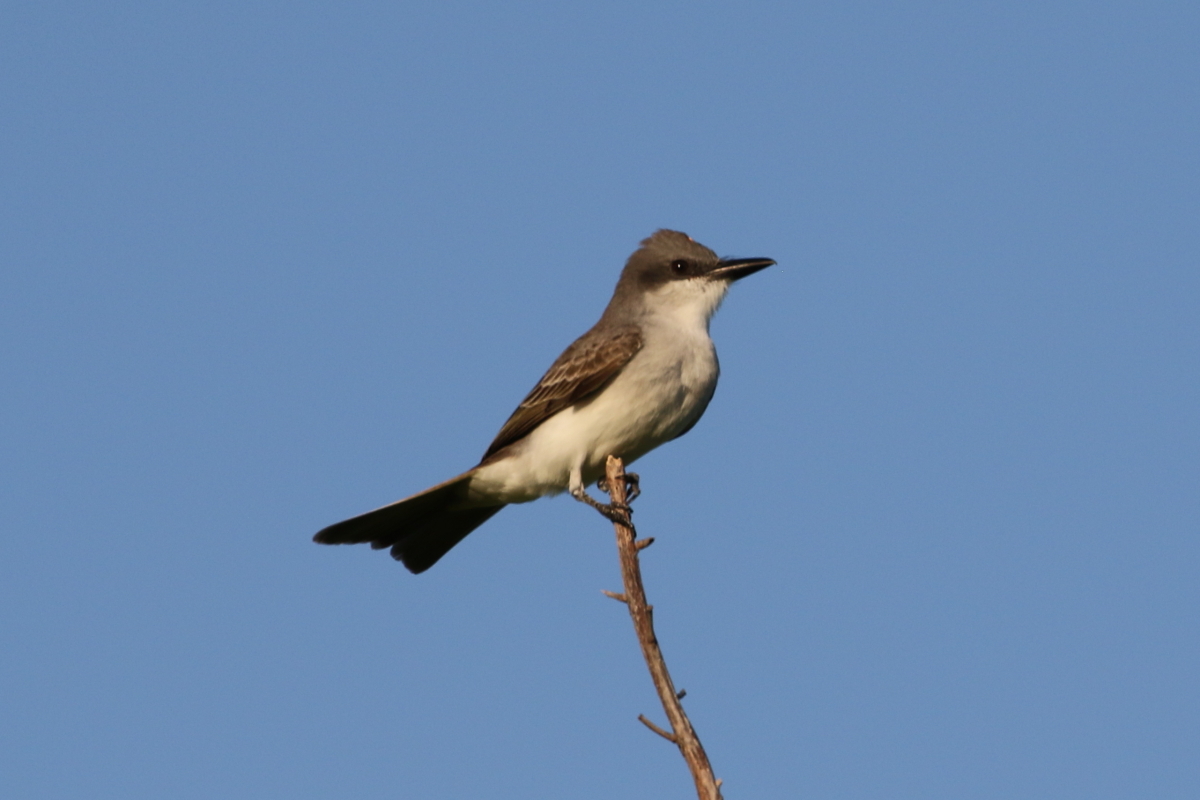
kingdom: Animalia
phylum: Chordata
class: Aves
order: Passeriformes
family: Tyrannidae
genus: Tyrannus
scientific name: Tyrannus dominicensis
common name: Gray kingbird
